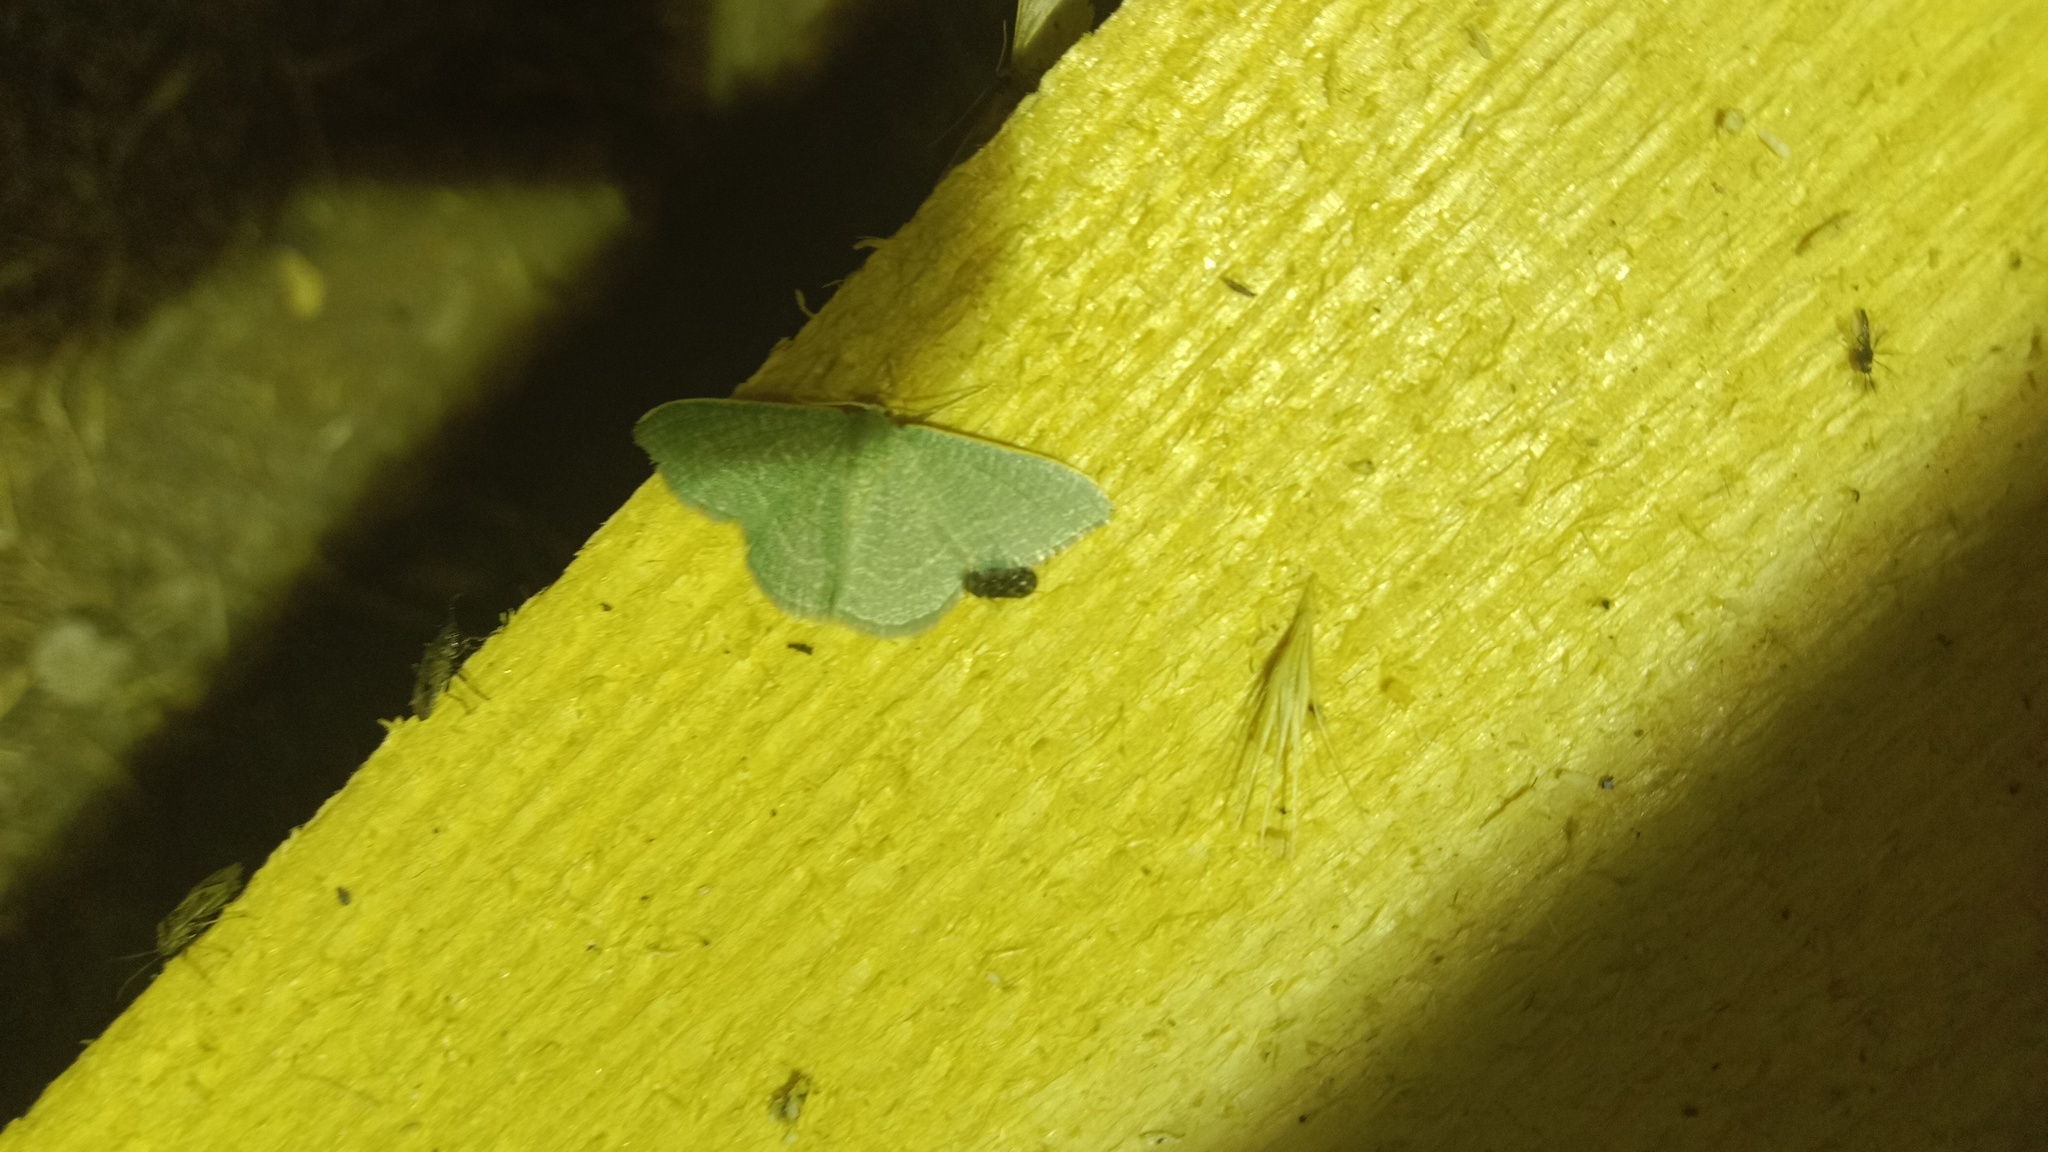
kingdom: Animalia
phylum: Arthropoda
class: Insecta
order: Lepidoptera
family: Geometridae
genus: Chlorissa
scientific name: Chlorissa etruscaria
